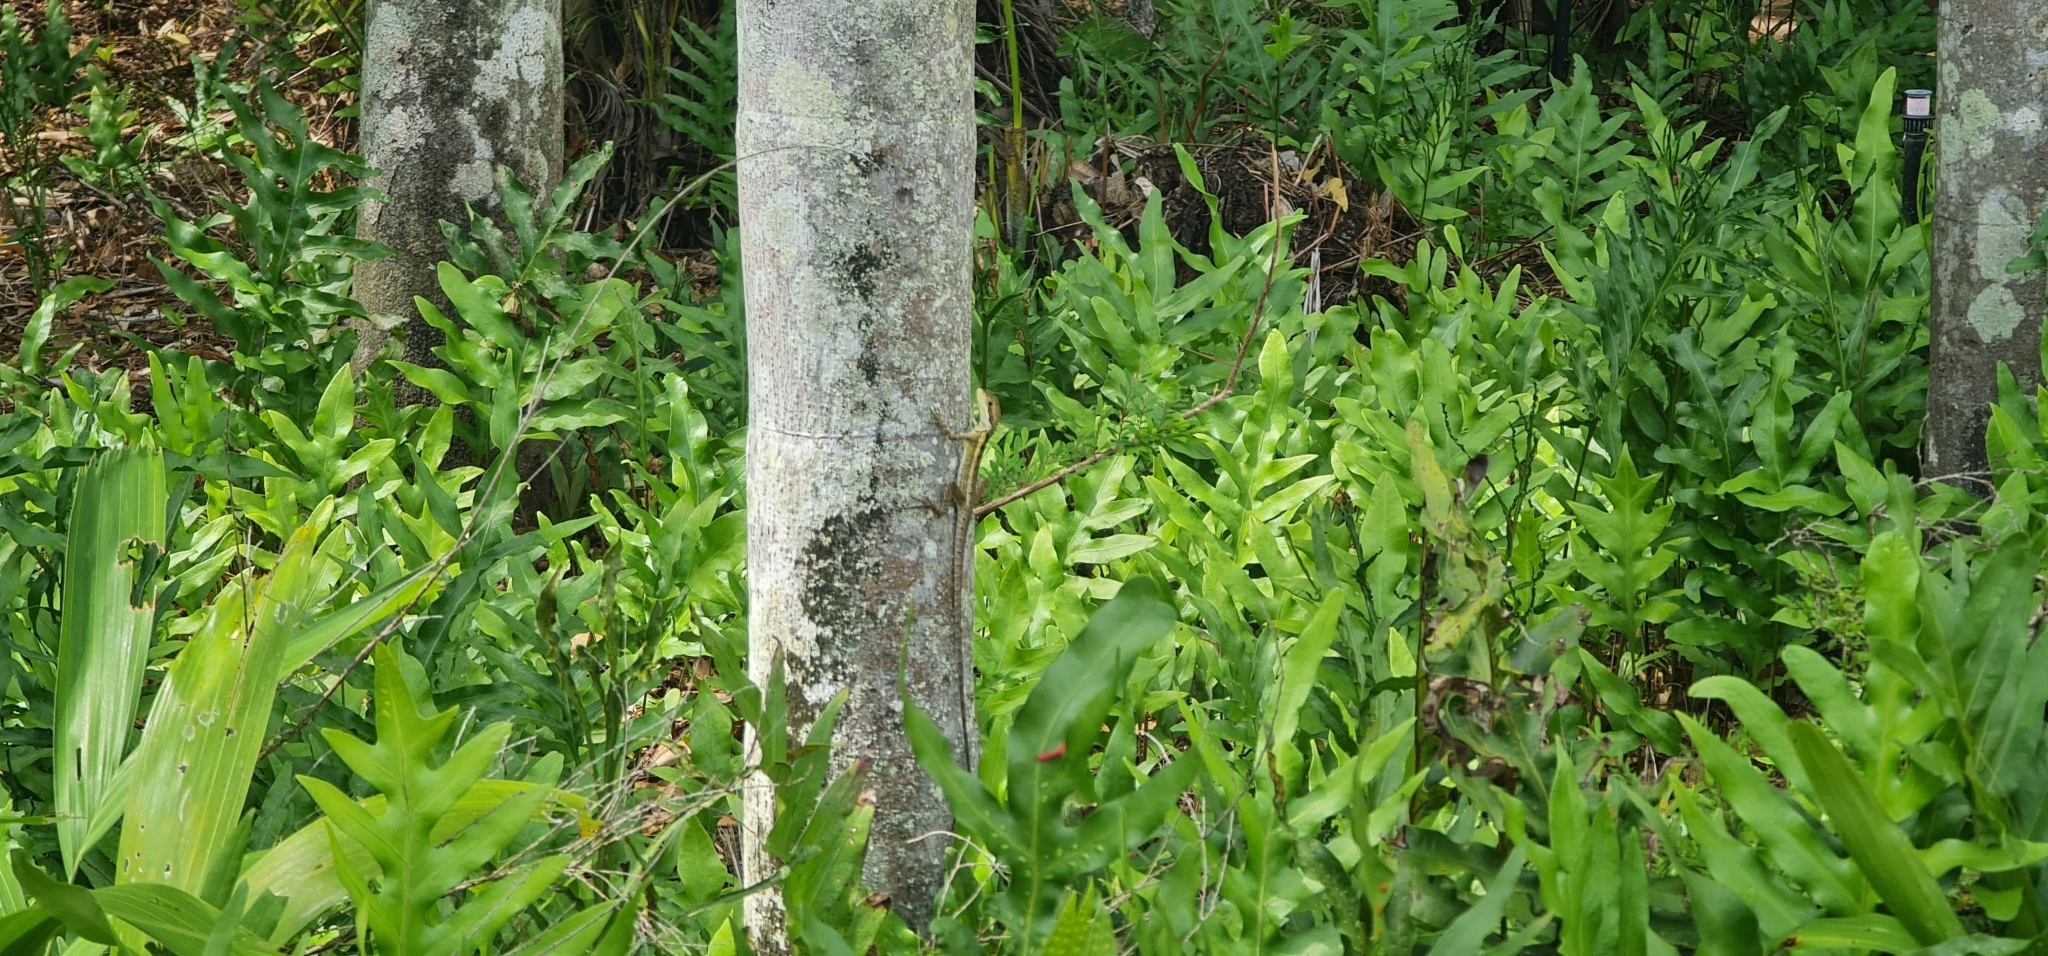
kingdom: Animalia
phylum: Chordata
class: Squamata
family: Agamidae
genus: Tropicagama
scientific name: Tropicagama temporalis
